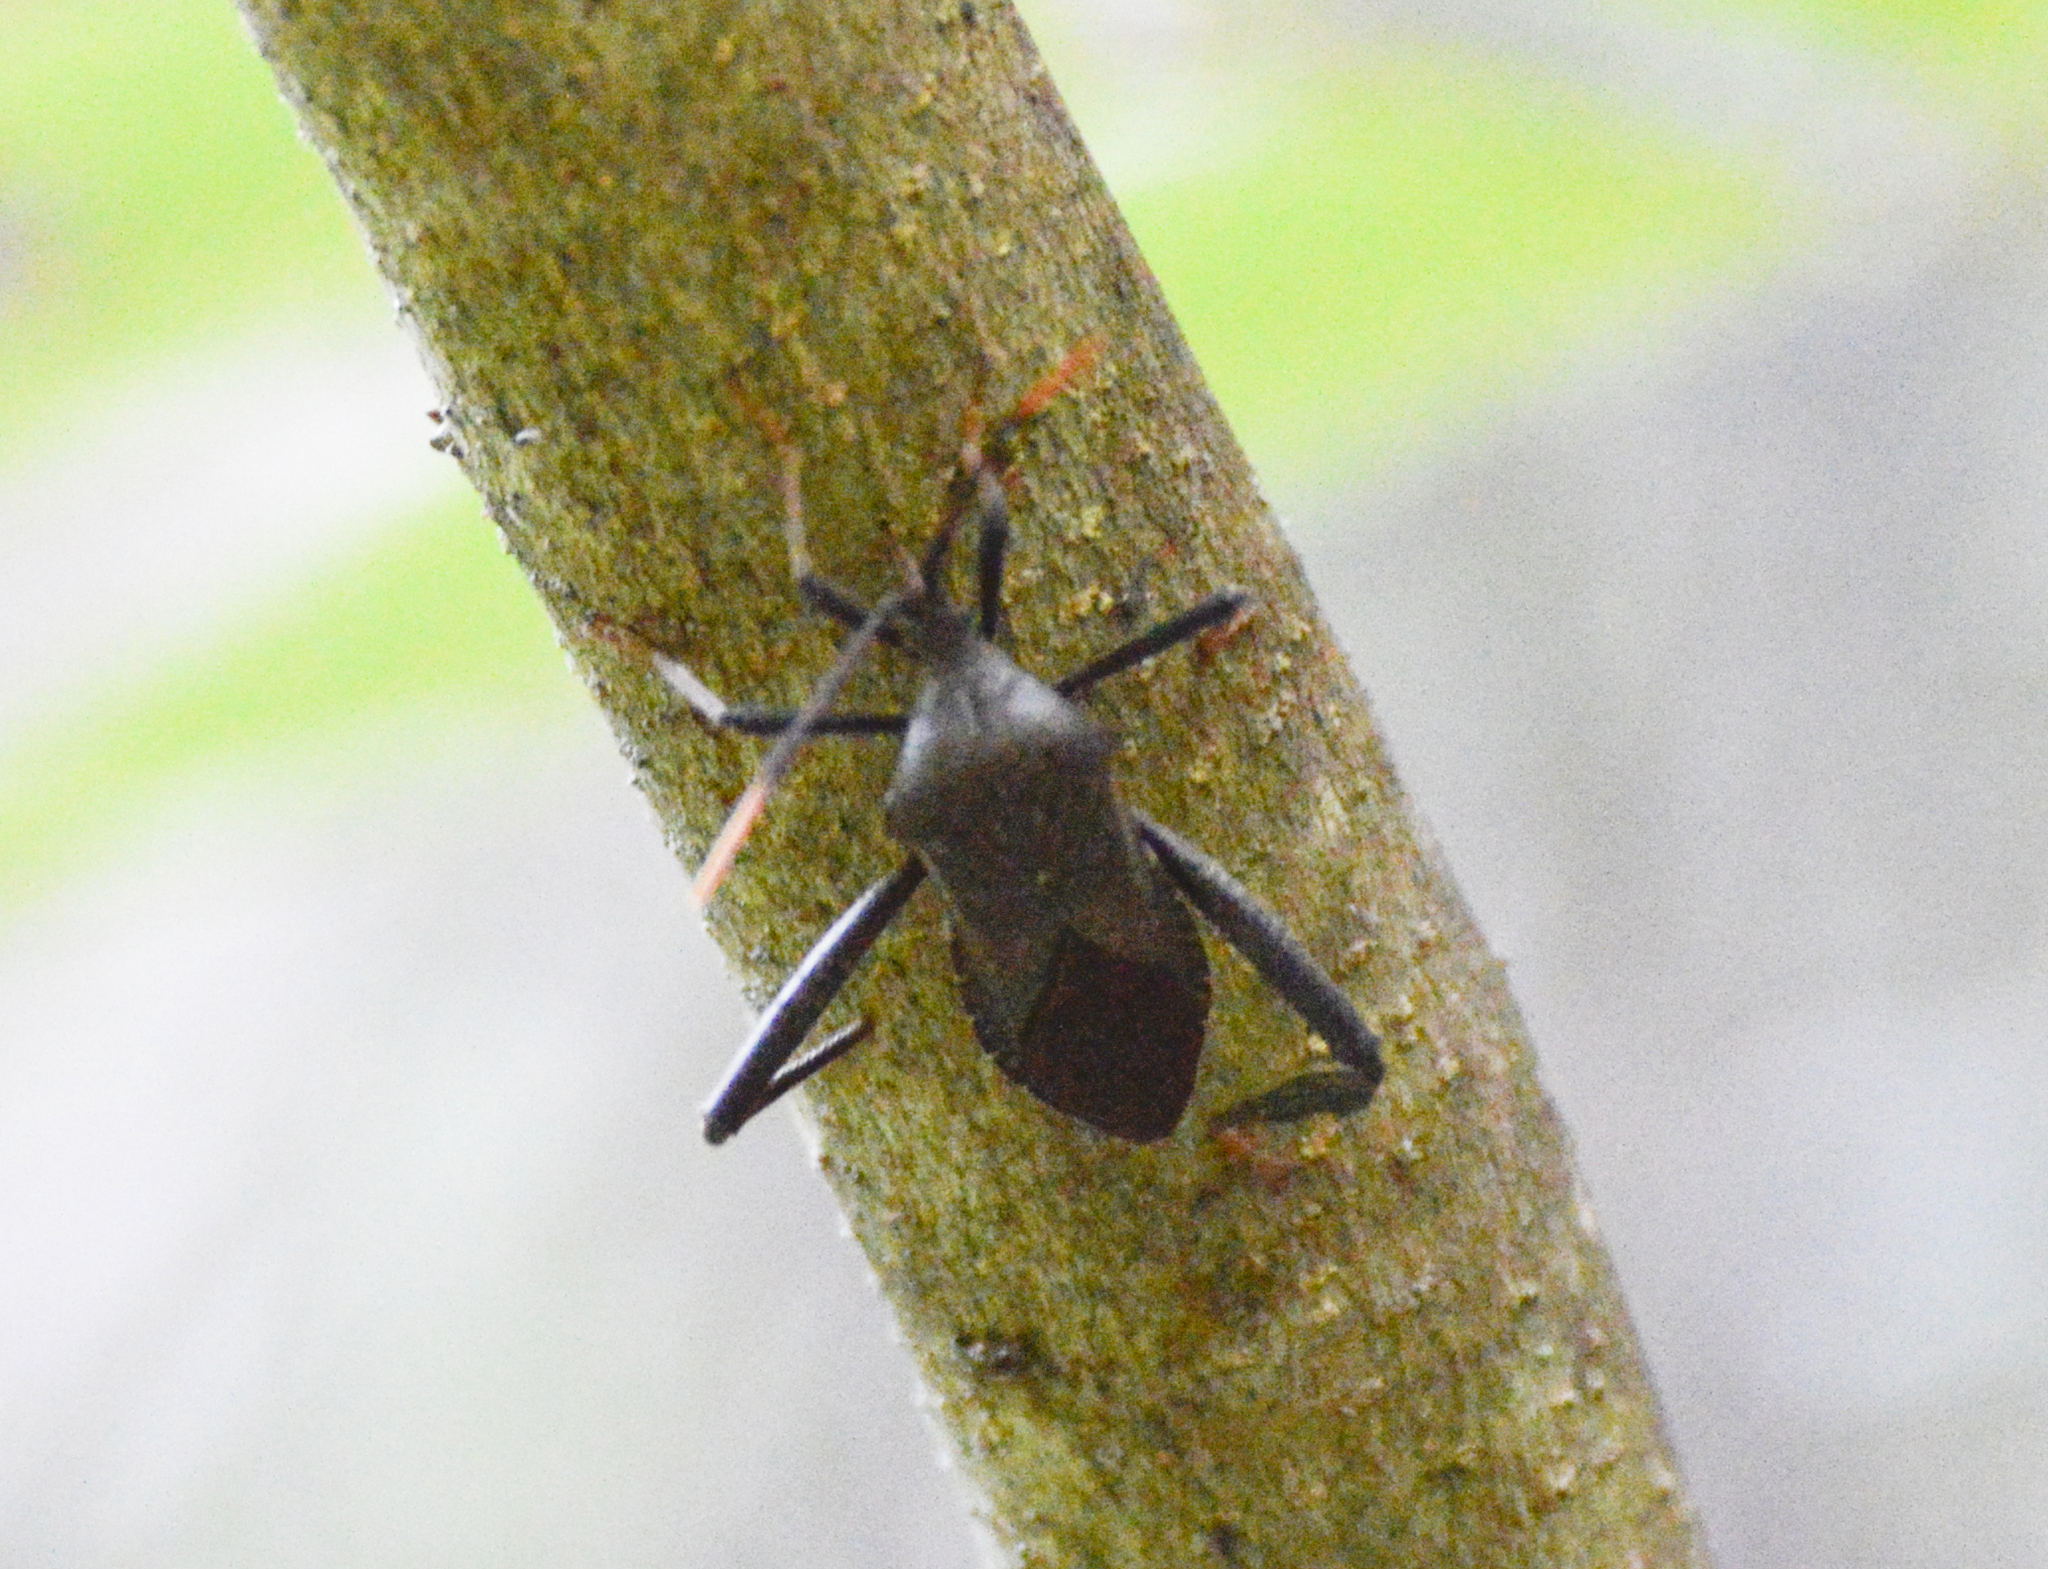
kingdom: Animalia
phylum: Arthropoda
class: Insecta
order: Hemiptera
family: Coreidae
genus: Acanthocephala
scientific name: Acanthocephala terminalis
